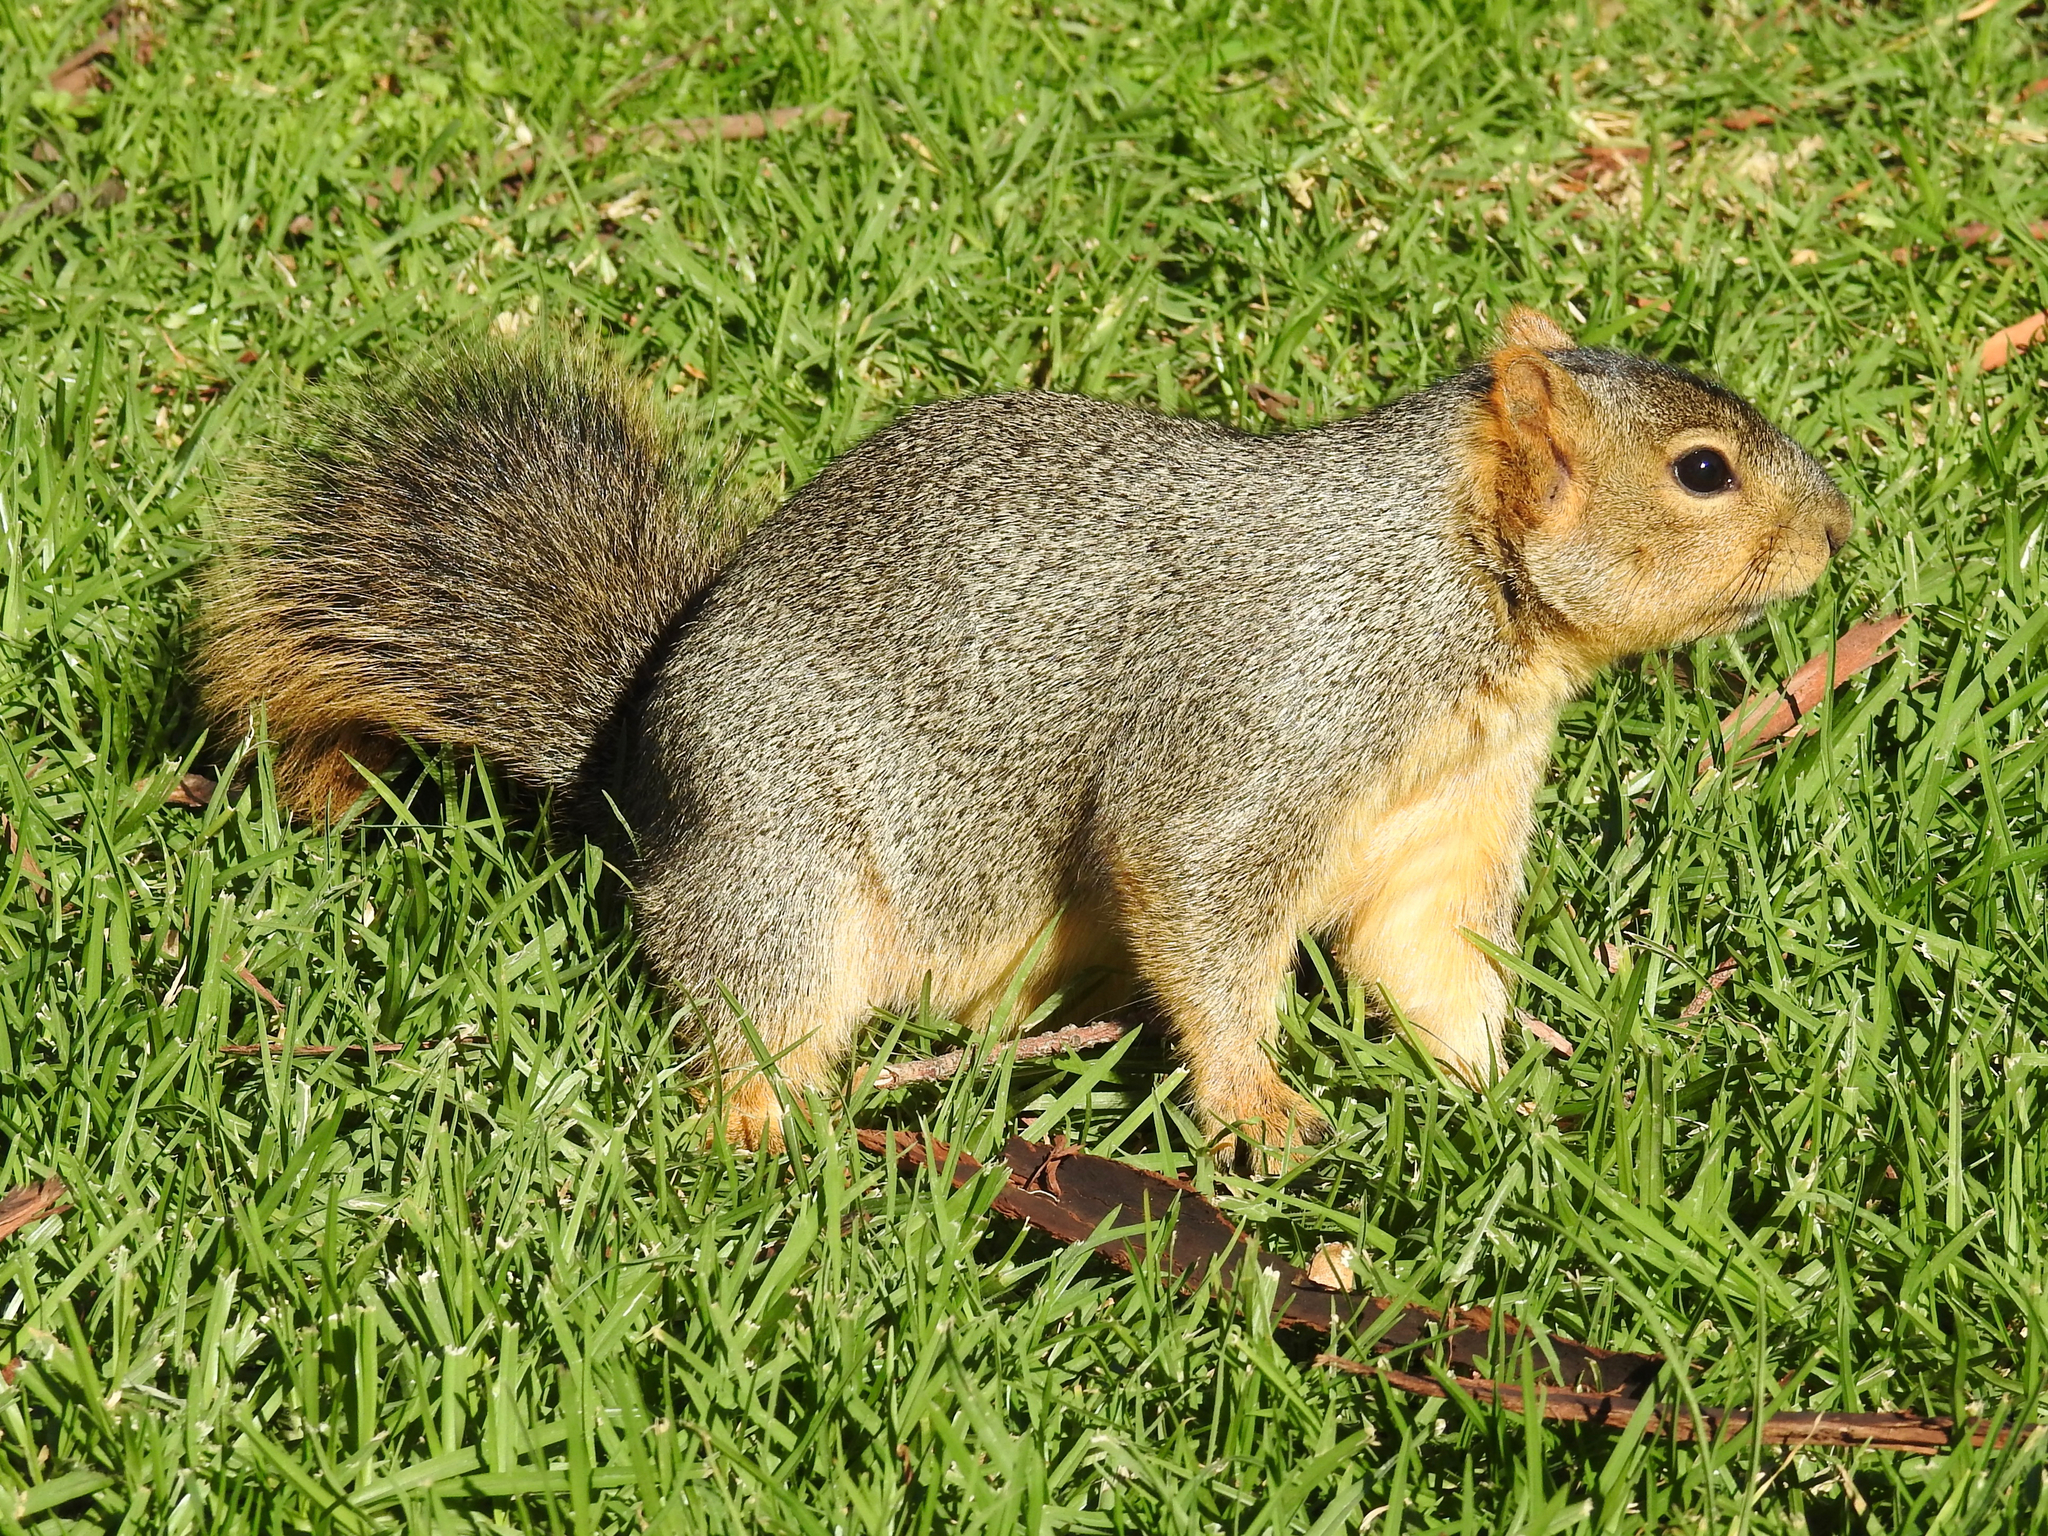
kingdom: Animalia
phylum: Chordata
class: Mammalia
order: Rodentia
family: Sciuridae
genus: Sciurus
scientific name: Sciurus niger
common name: Fox squirrel
